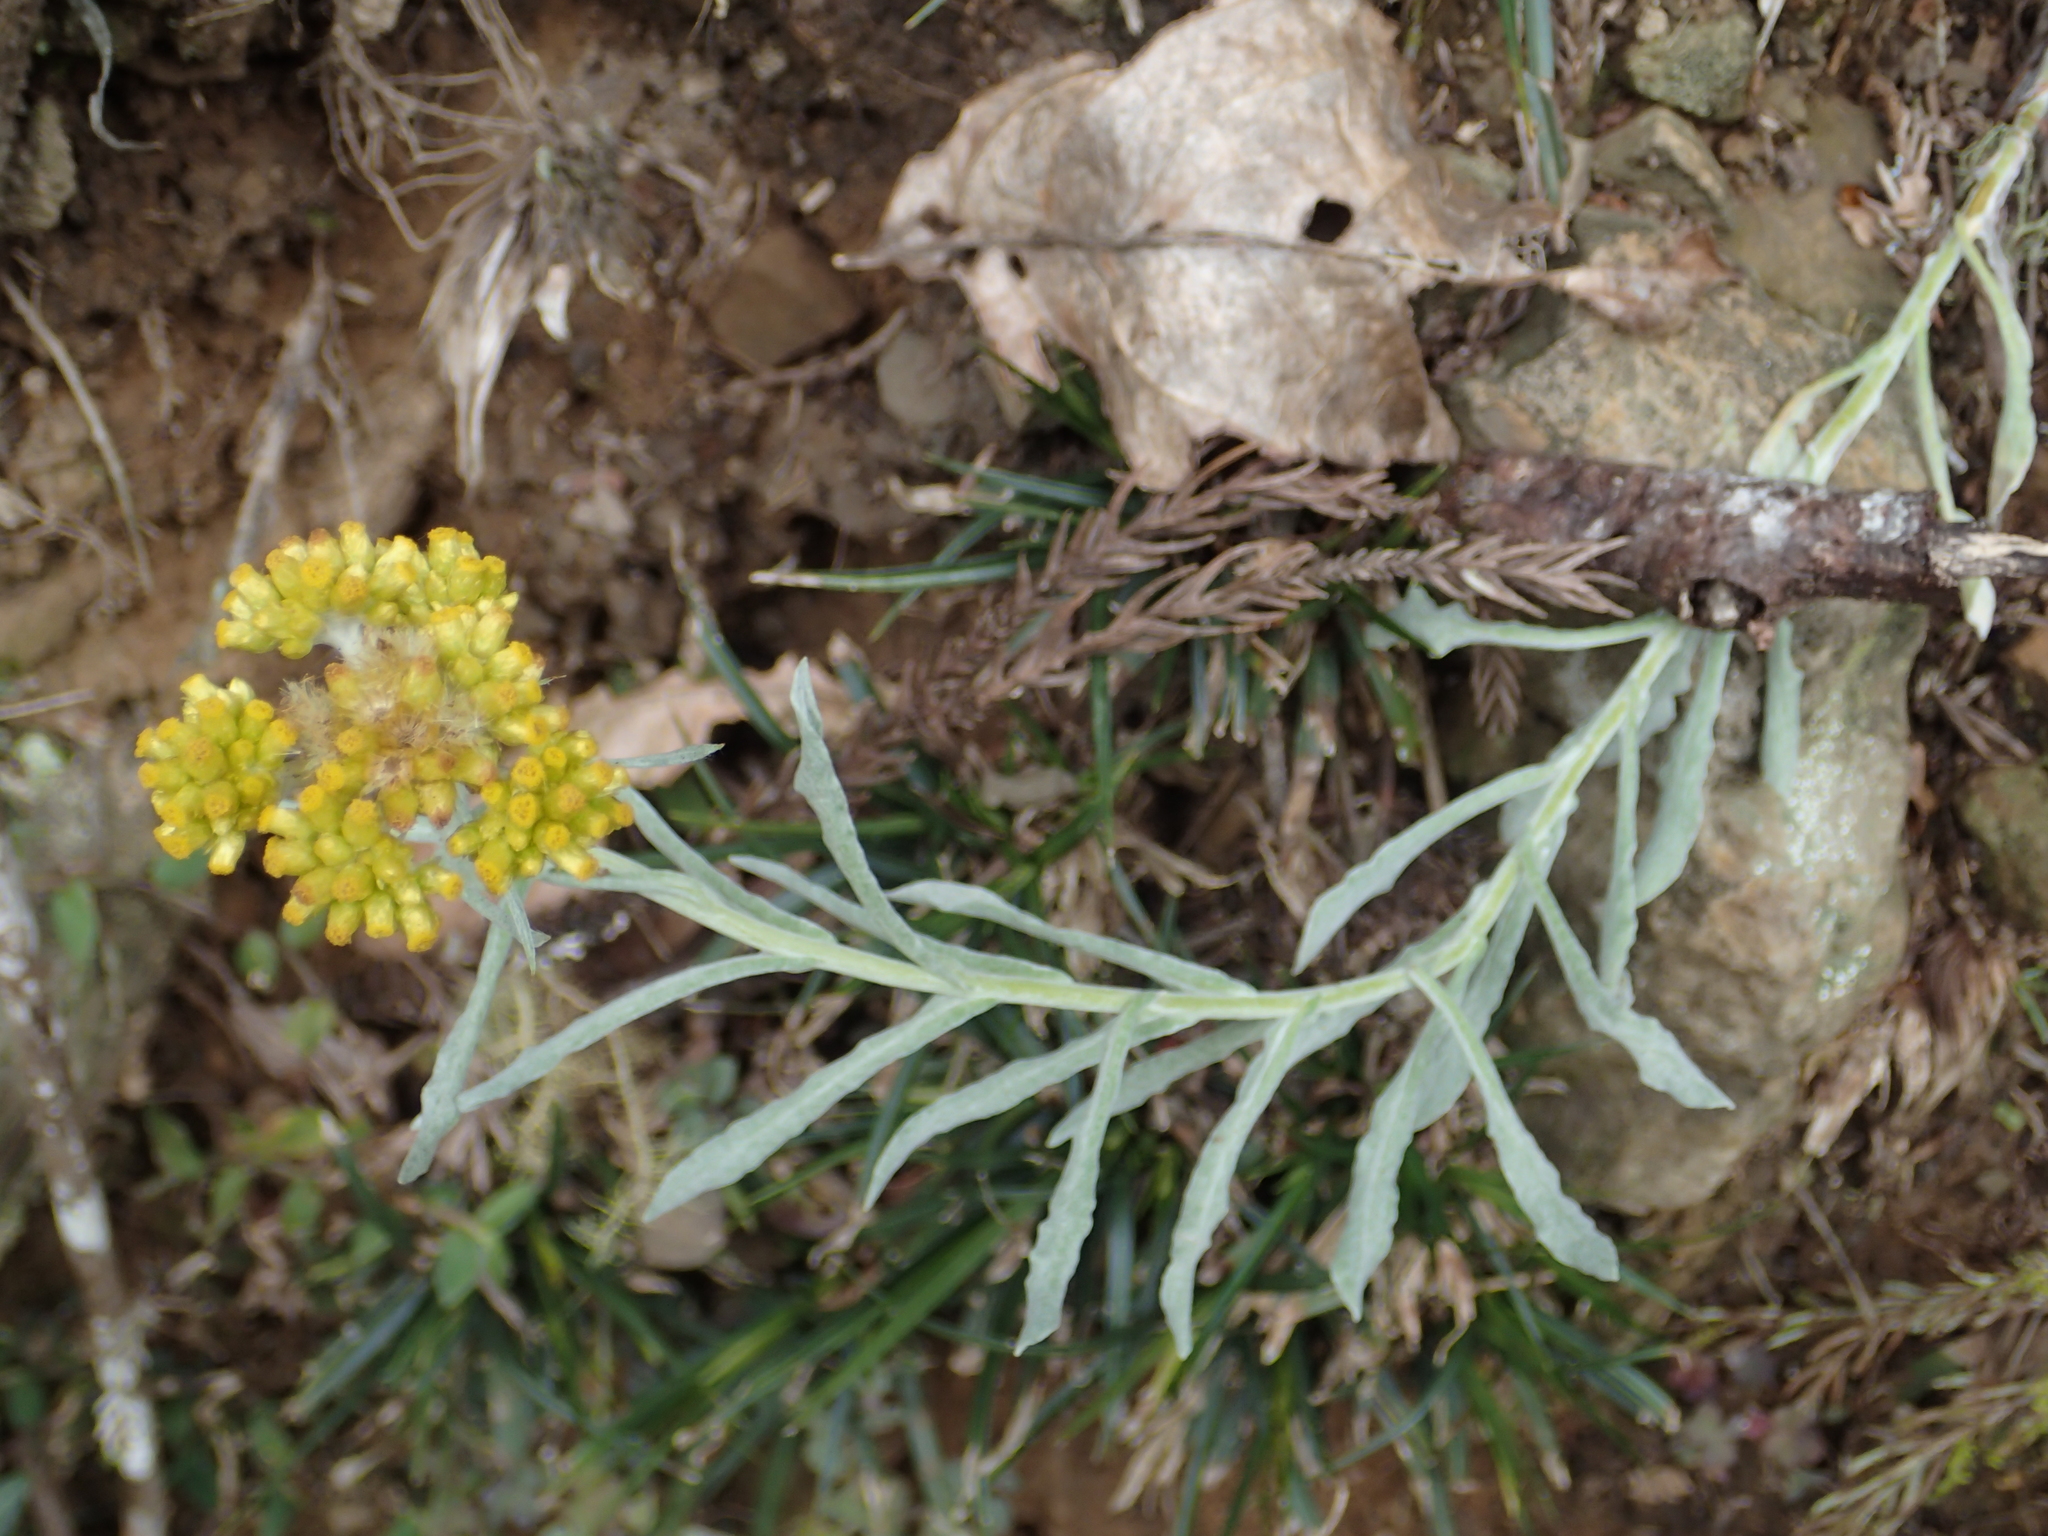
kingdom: Plantae
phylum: Tracheophyta
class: Magnoliopsida
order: Asterales
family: Asteraceae
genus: Pseudognaphalium
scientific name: Pseudognaphalium affine
